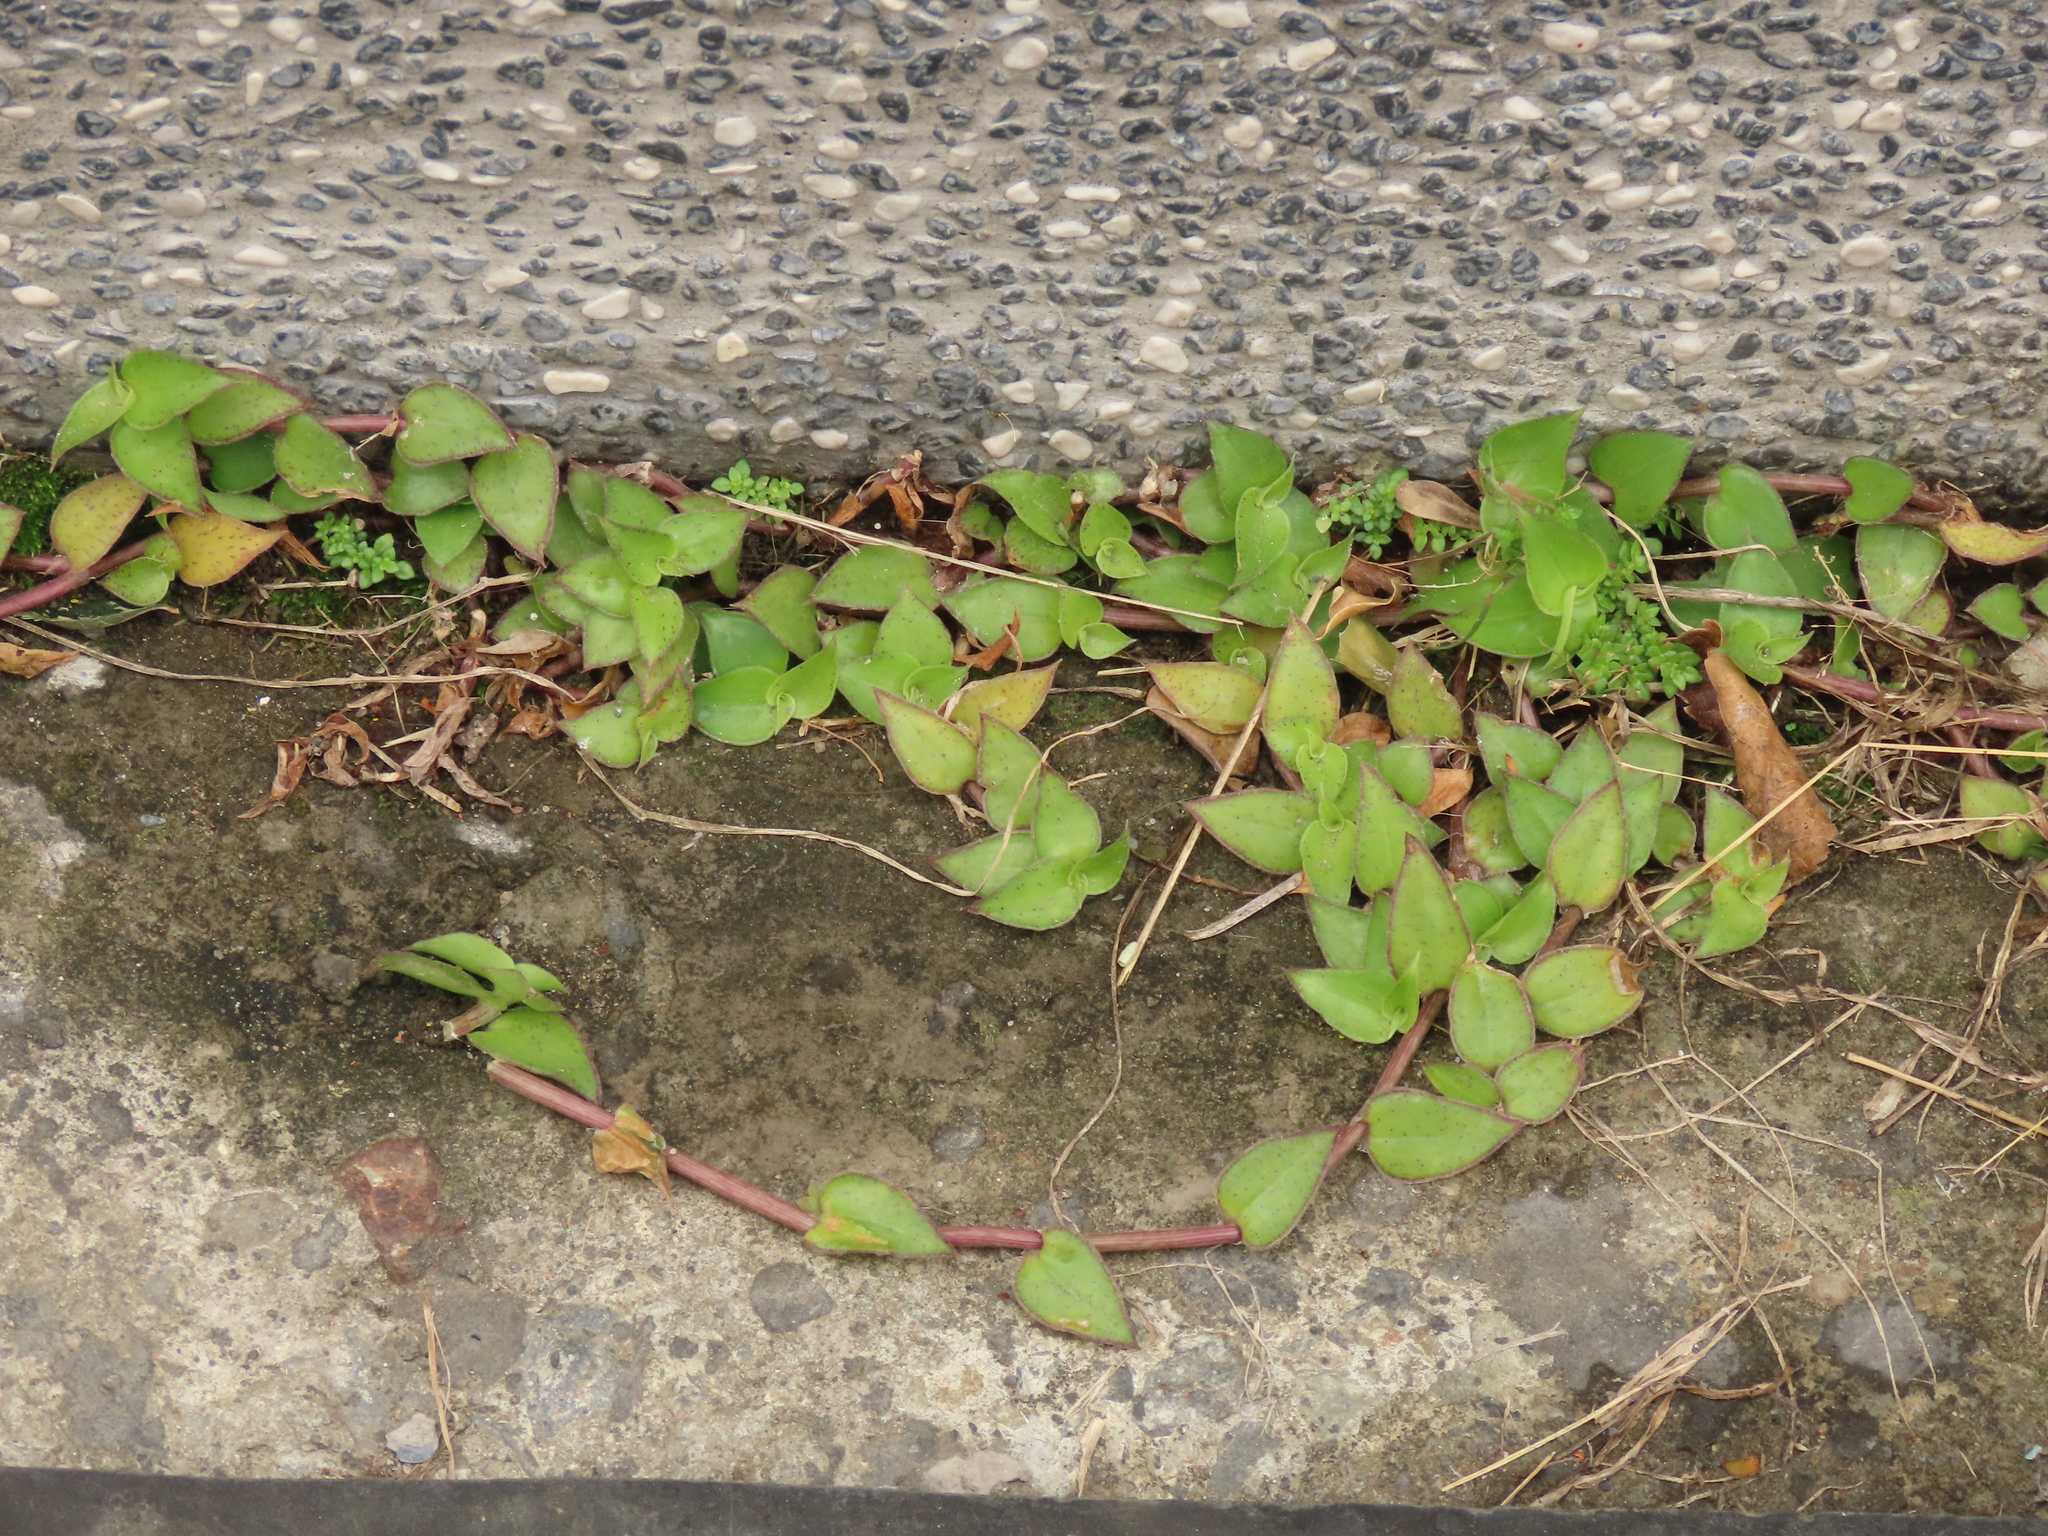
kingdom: Plantae
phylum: Tracheophyta
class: Liliopsida
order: Commelinales
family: Commelinaceae
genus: Callisia
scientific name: Callisia repens
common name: Creeping inchplant
